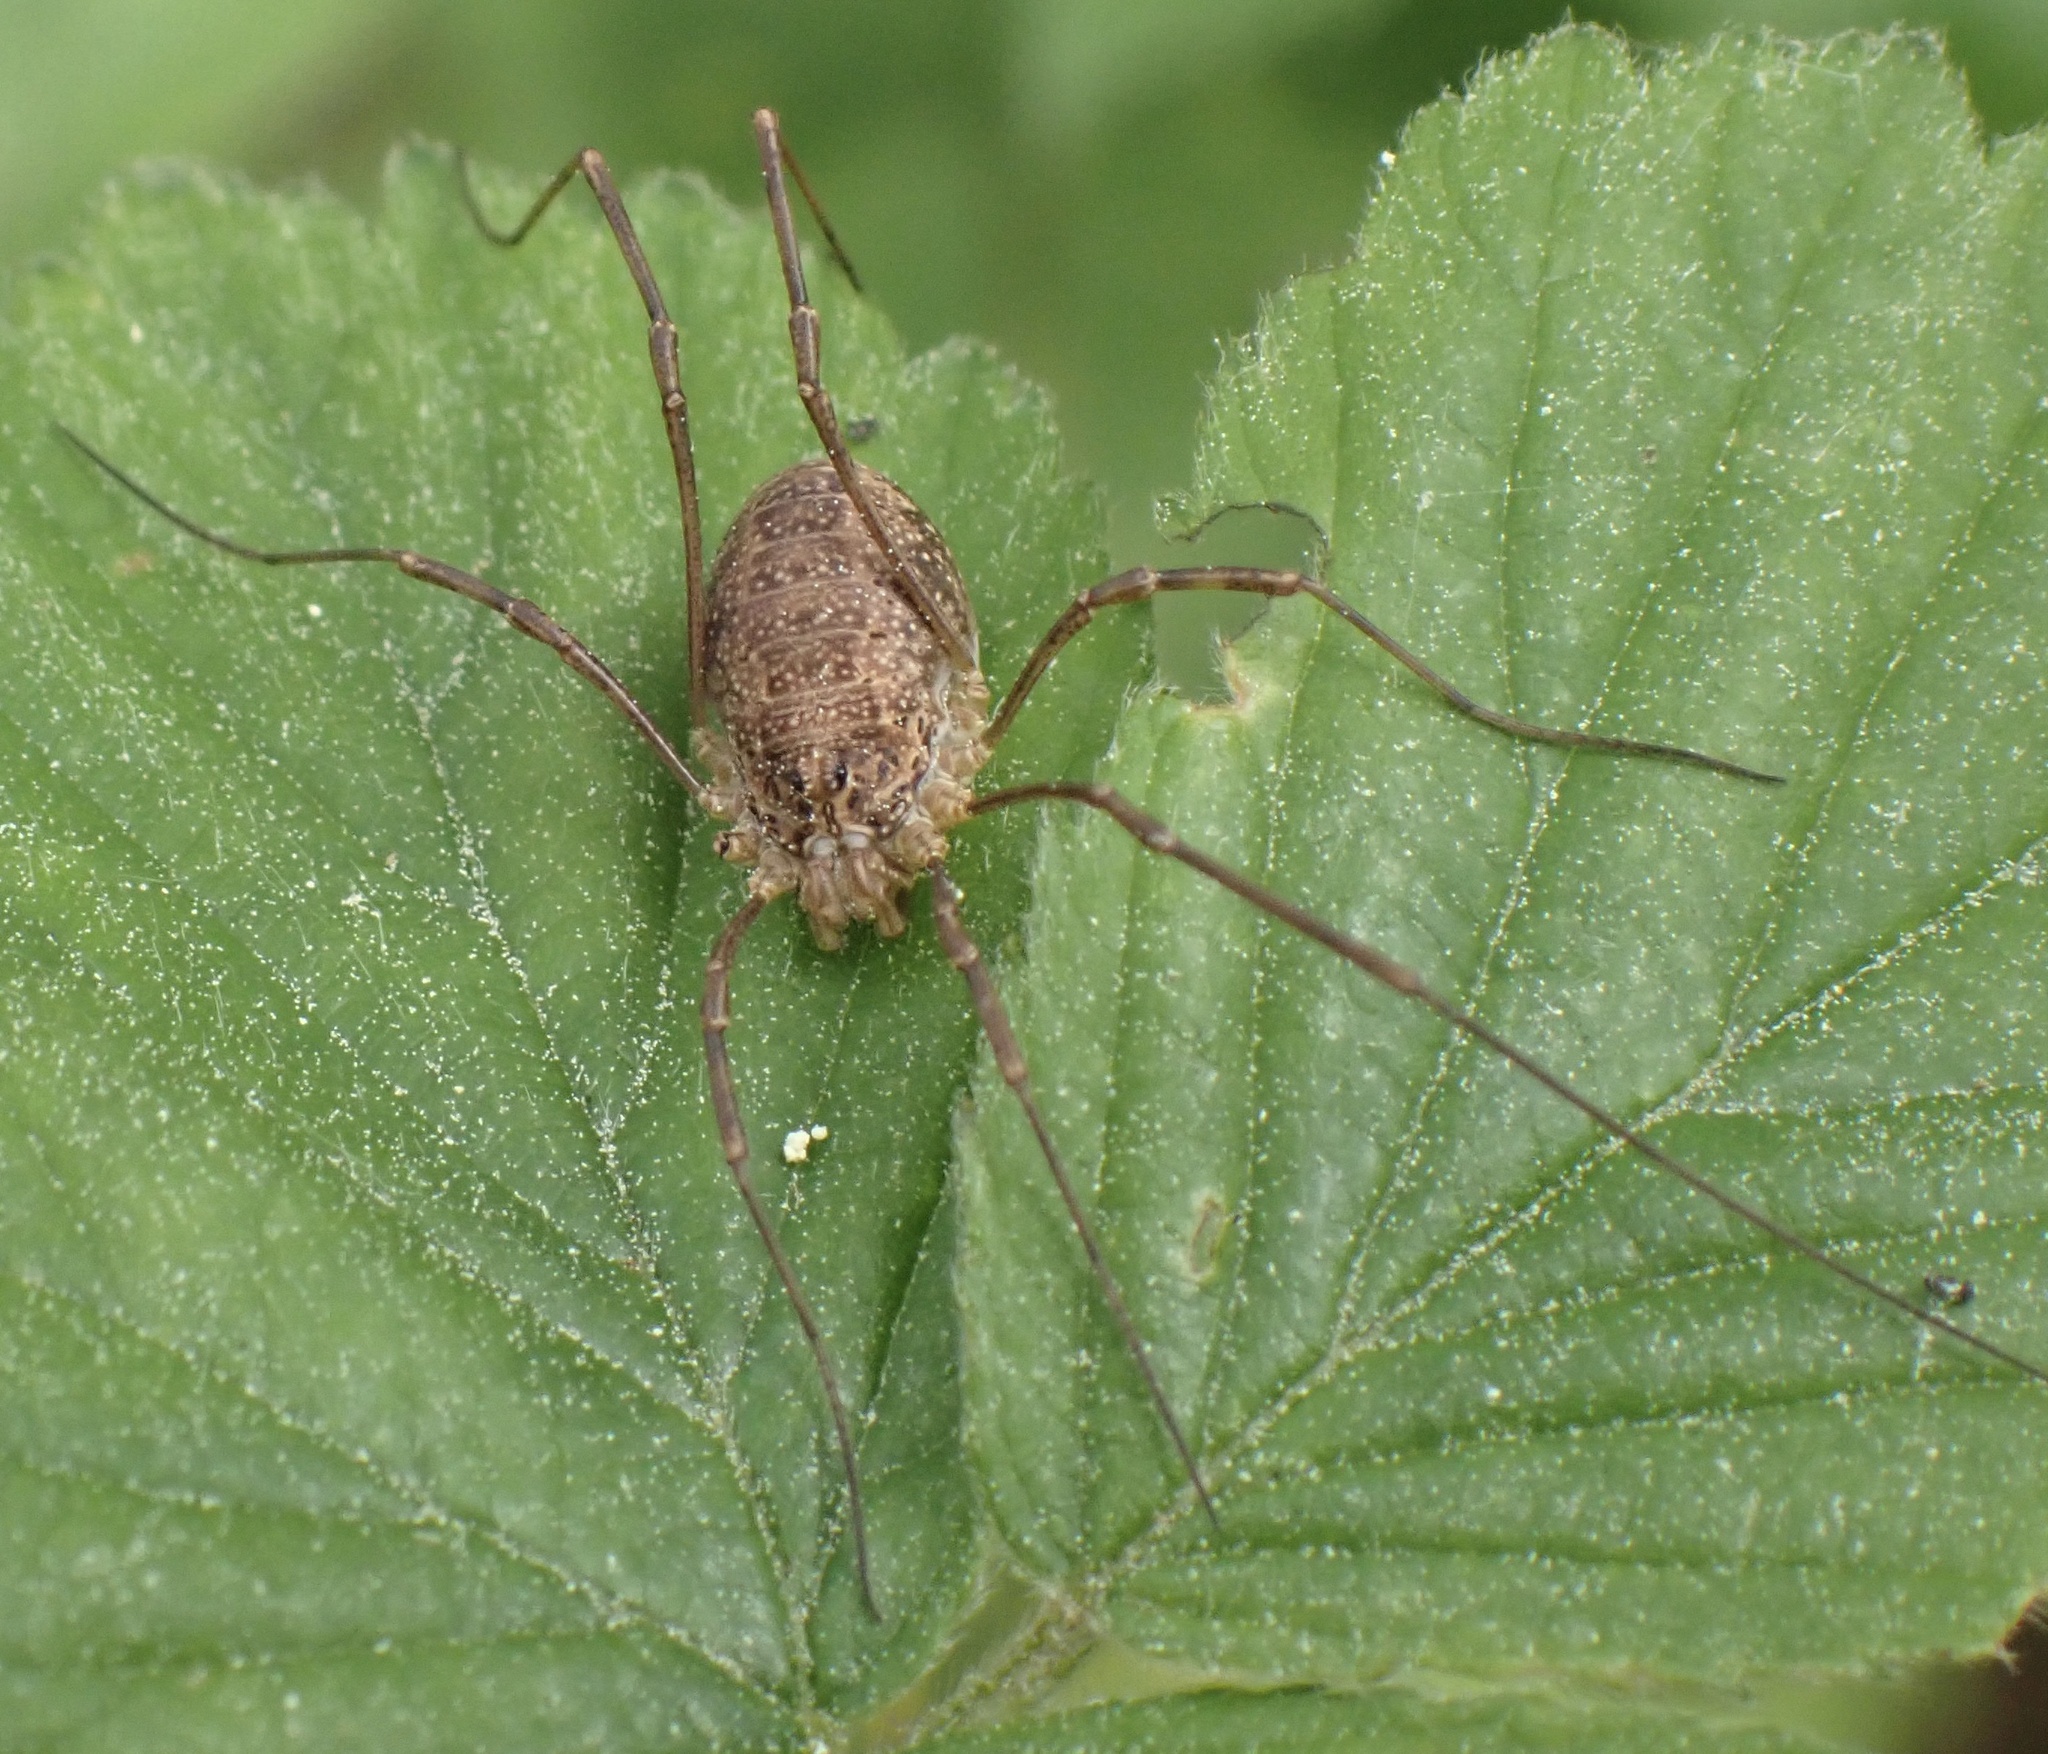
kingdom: Animalia
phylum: Arthropoda
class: Arachnida
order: Opiliones
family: Phalangiidae
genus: Rilaena
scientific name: Rilaena triangularis
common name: Spring harvestman
